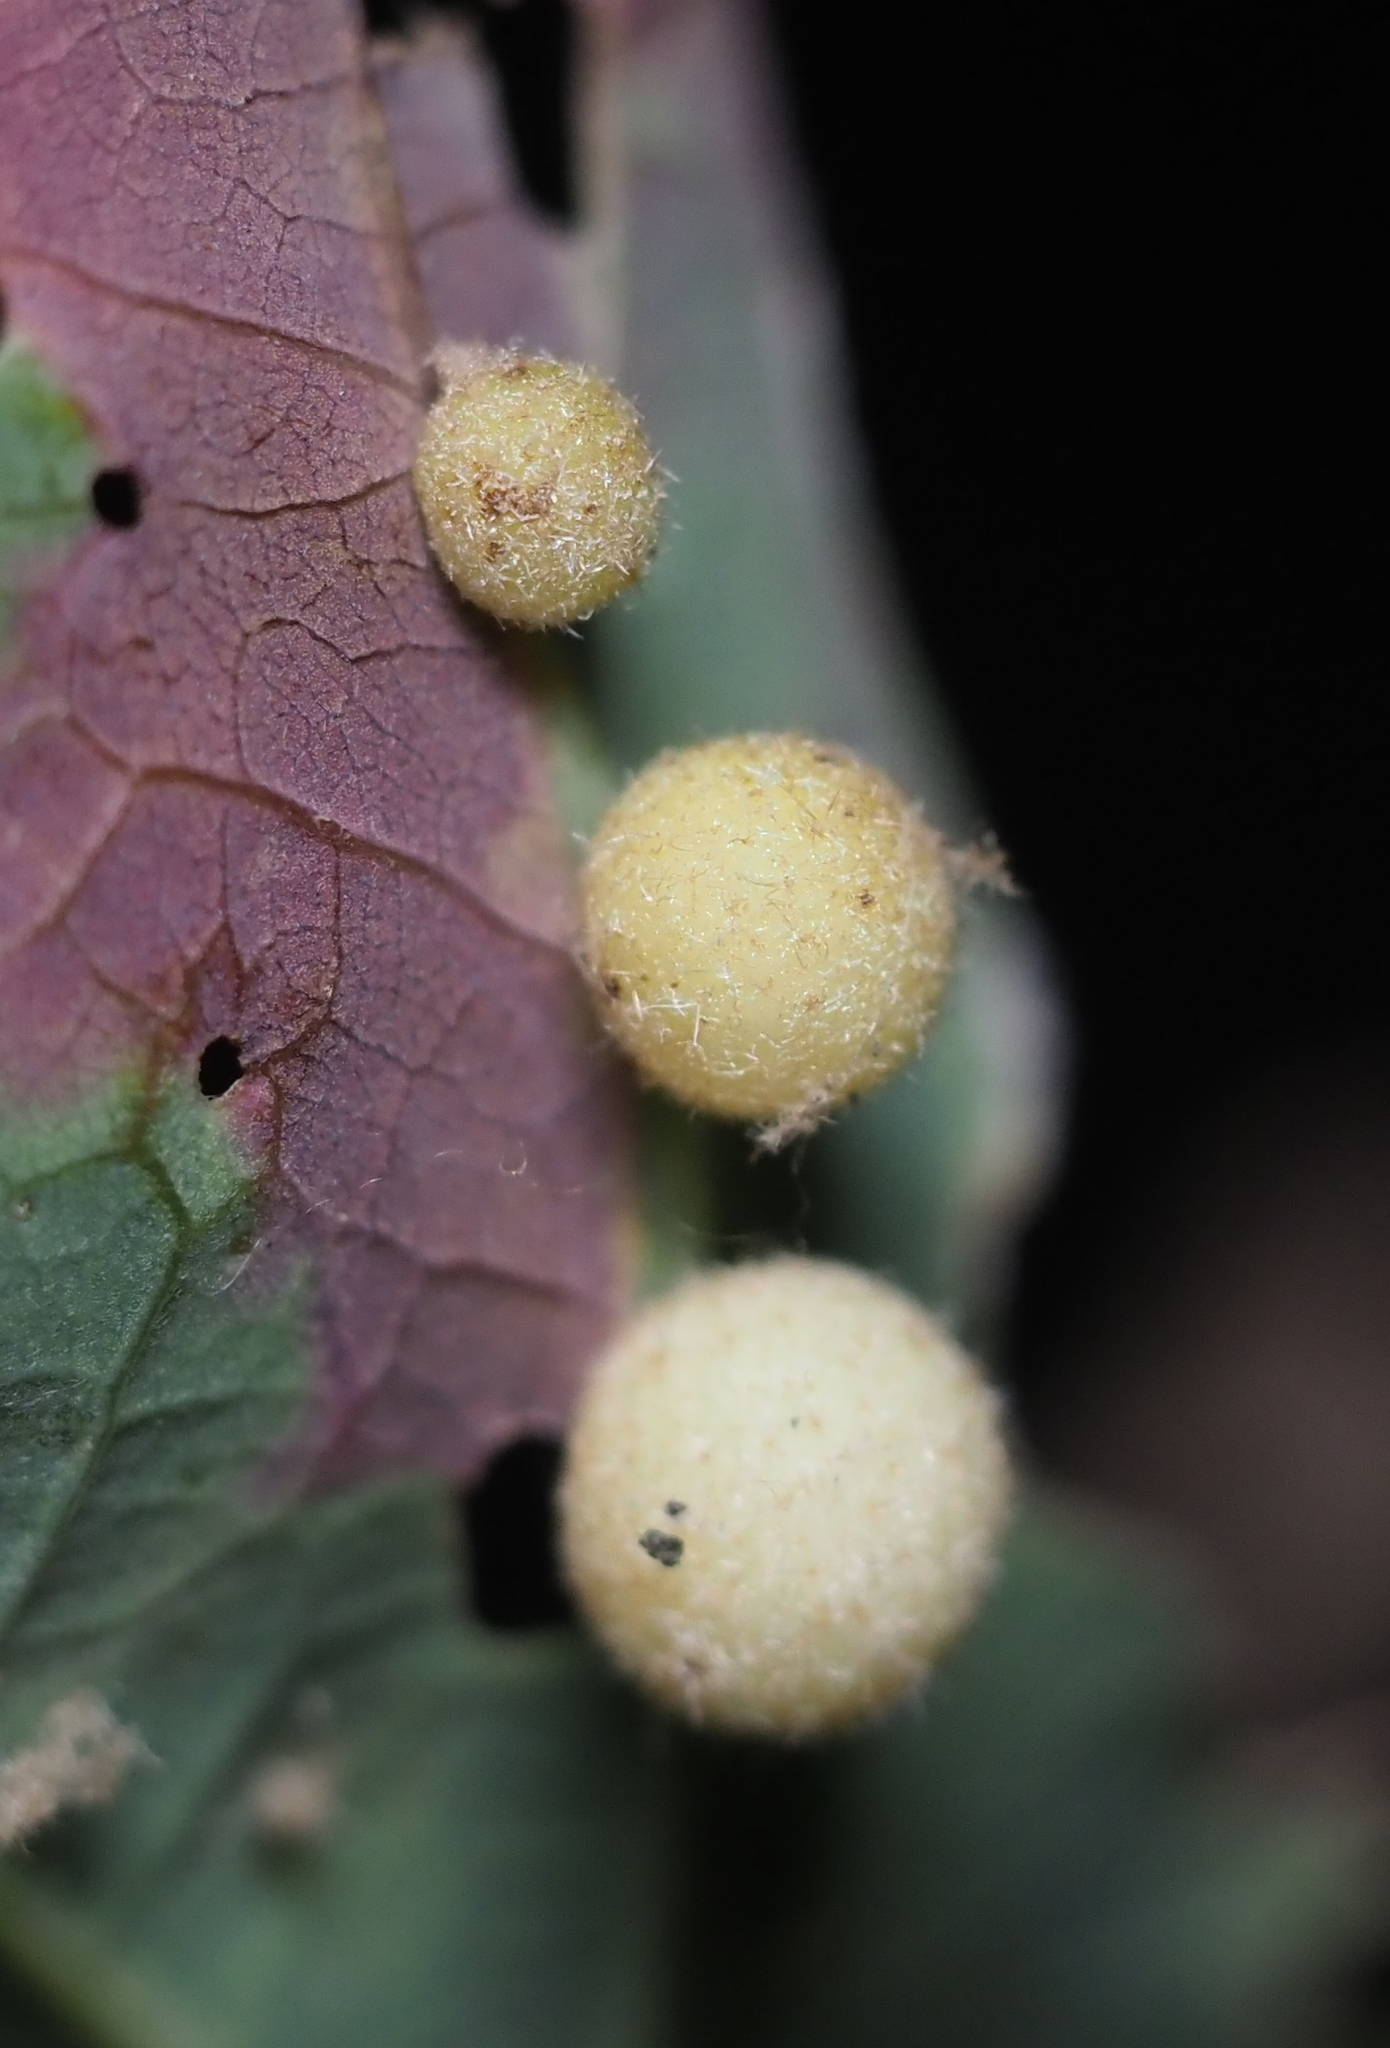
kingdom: Animalia
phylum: Arthropoda
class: Insecta
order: Hymenoptera
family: Cynipidae
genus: Philonix
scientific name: Philonix fulvicollis
